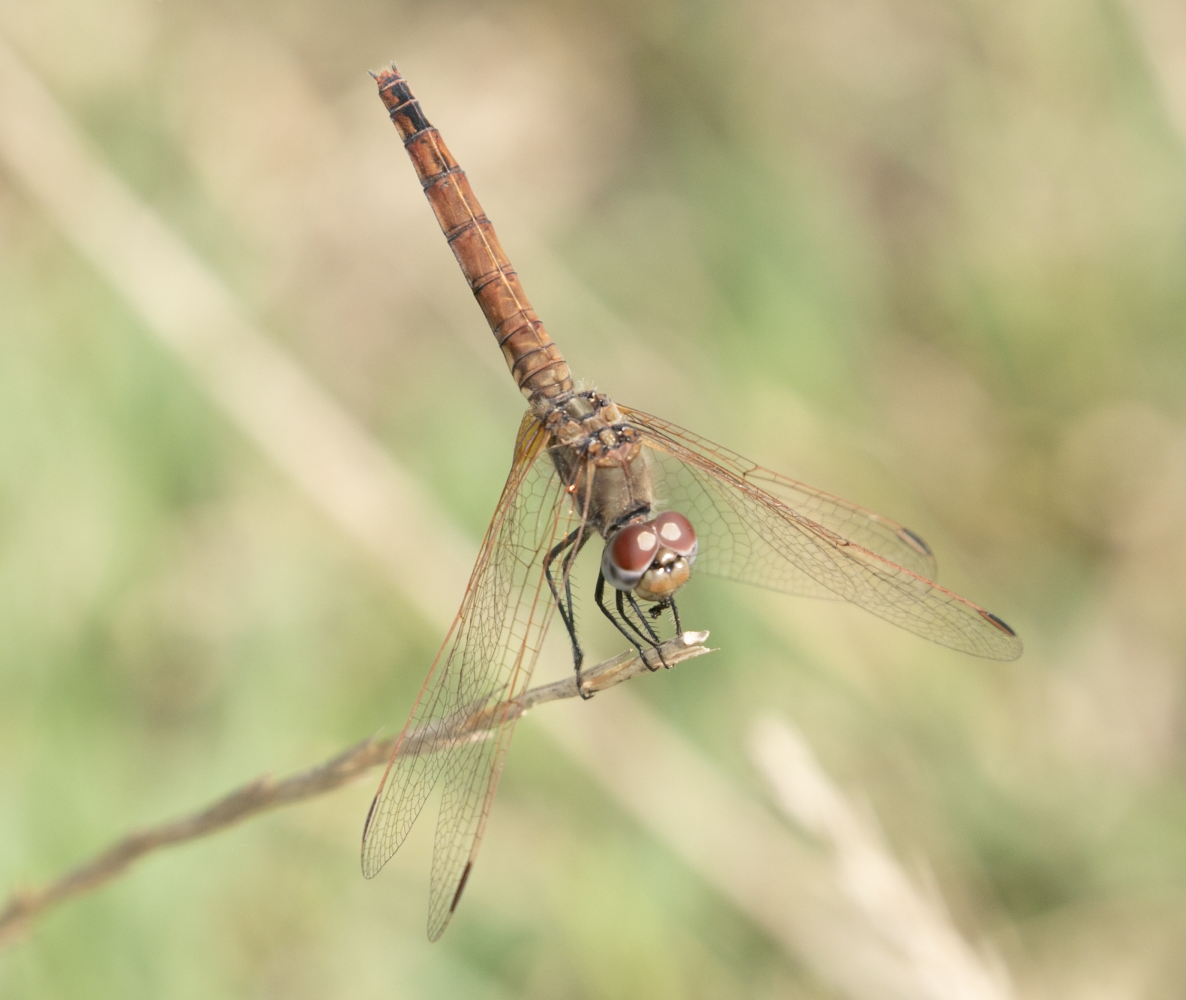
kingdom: Animalia
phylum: Arthropoda
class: Insecta
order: Odonata
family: Libellulidae
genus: Trithemis
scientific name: Trithemis annulata
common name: Violet dropwing
